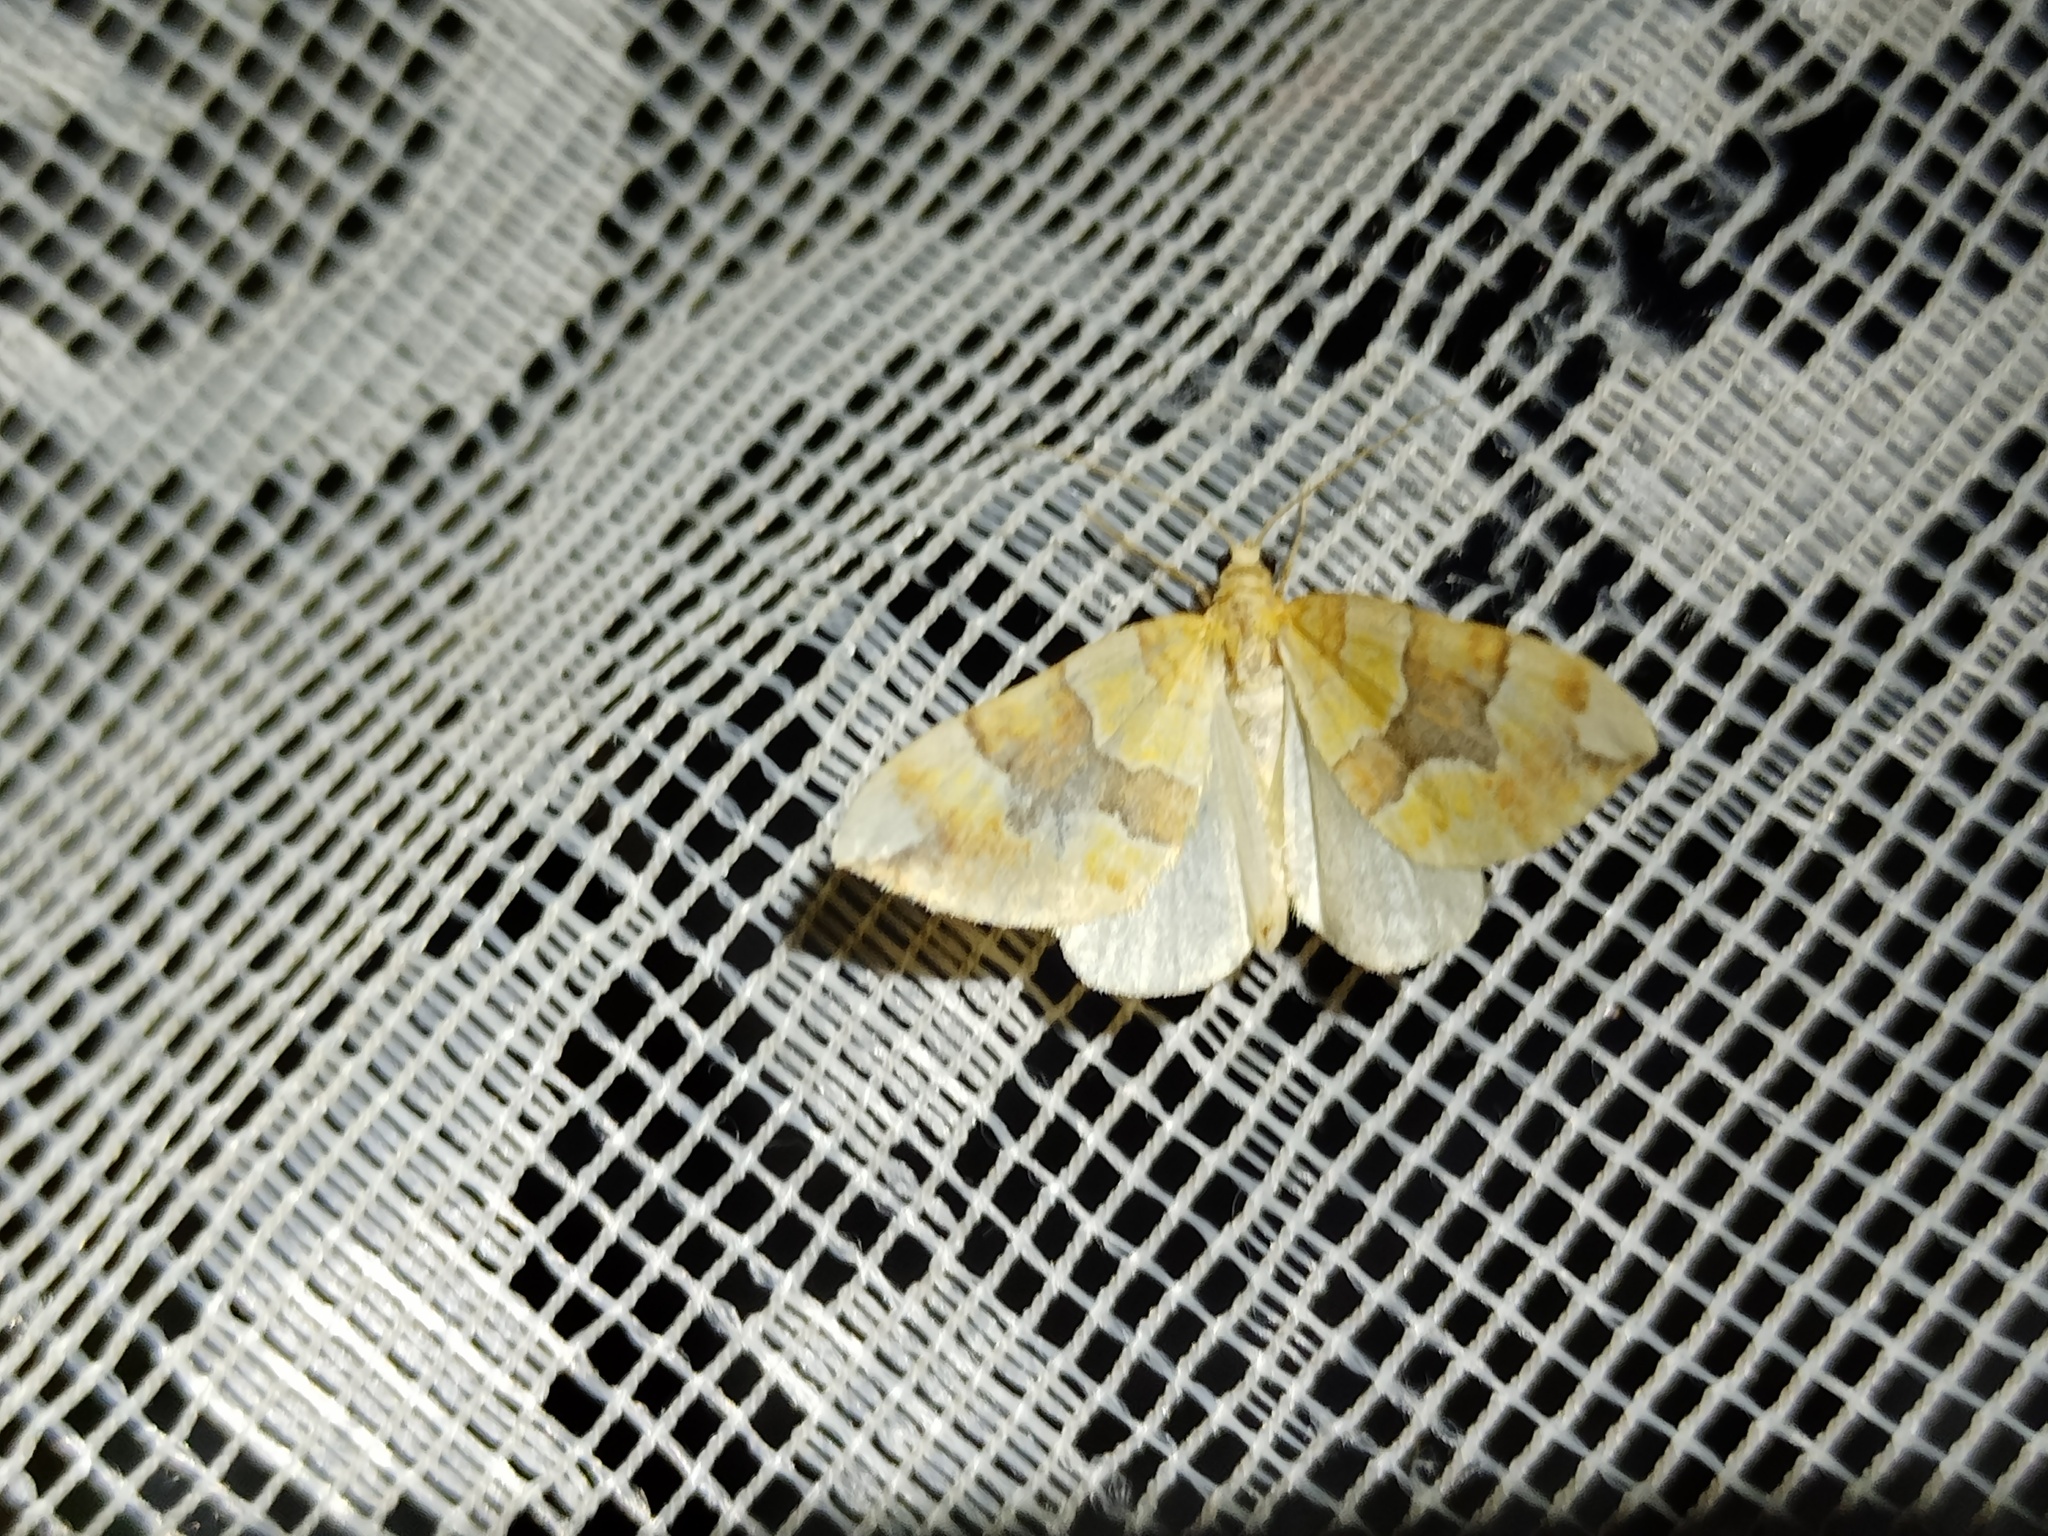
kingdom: Animalia
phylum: Arthropoda
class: Insecta
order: Lepidoptera
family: Geometridae
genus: Cidaria
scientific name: Cidaria fulvata
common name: Barred yellow
